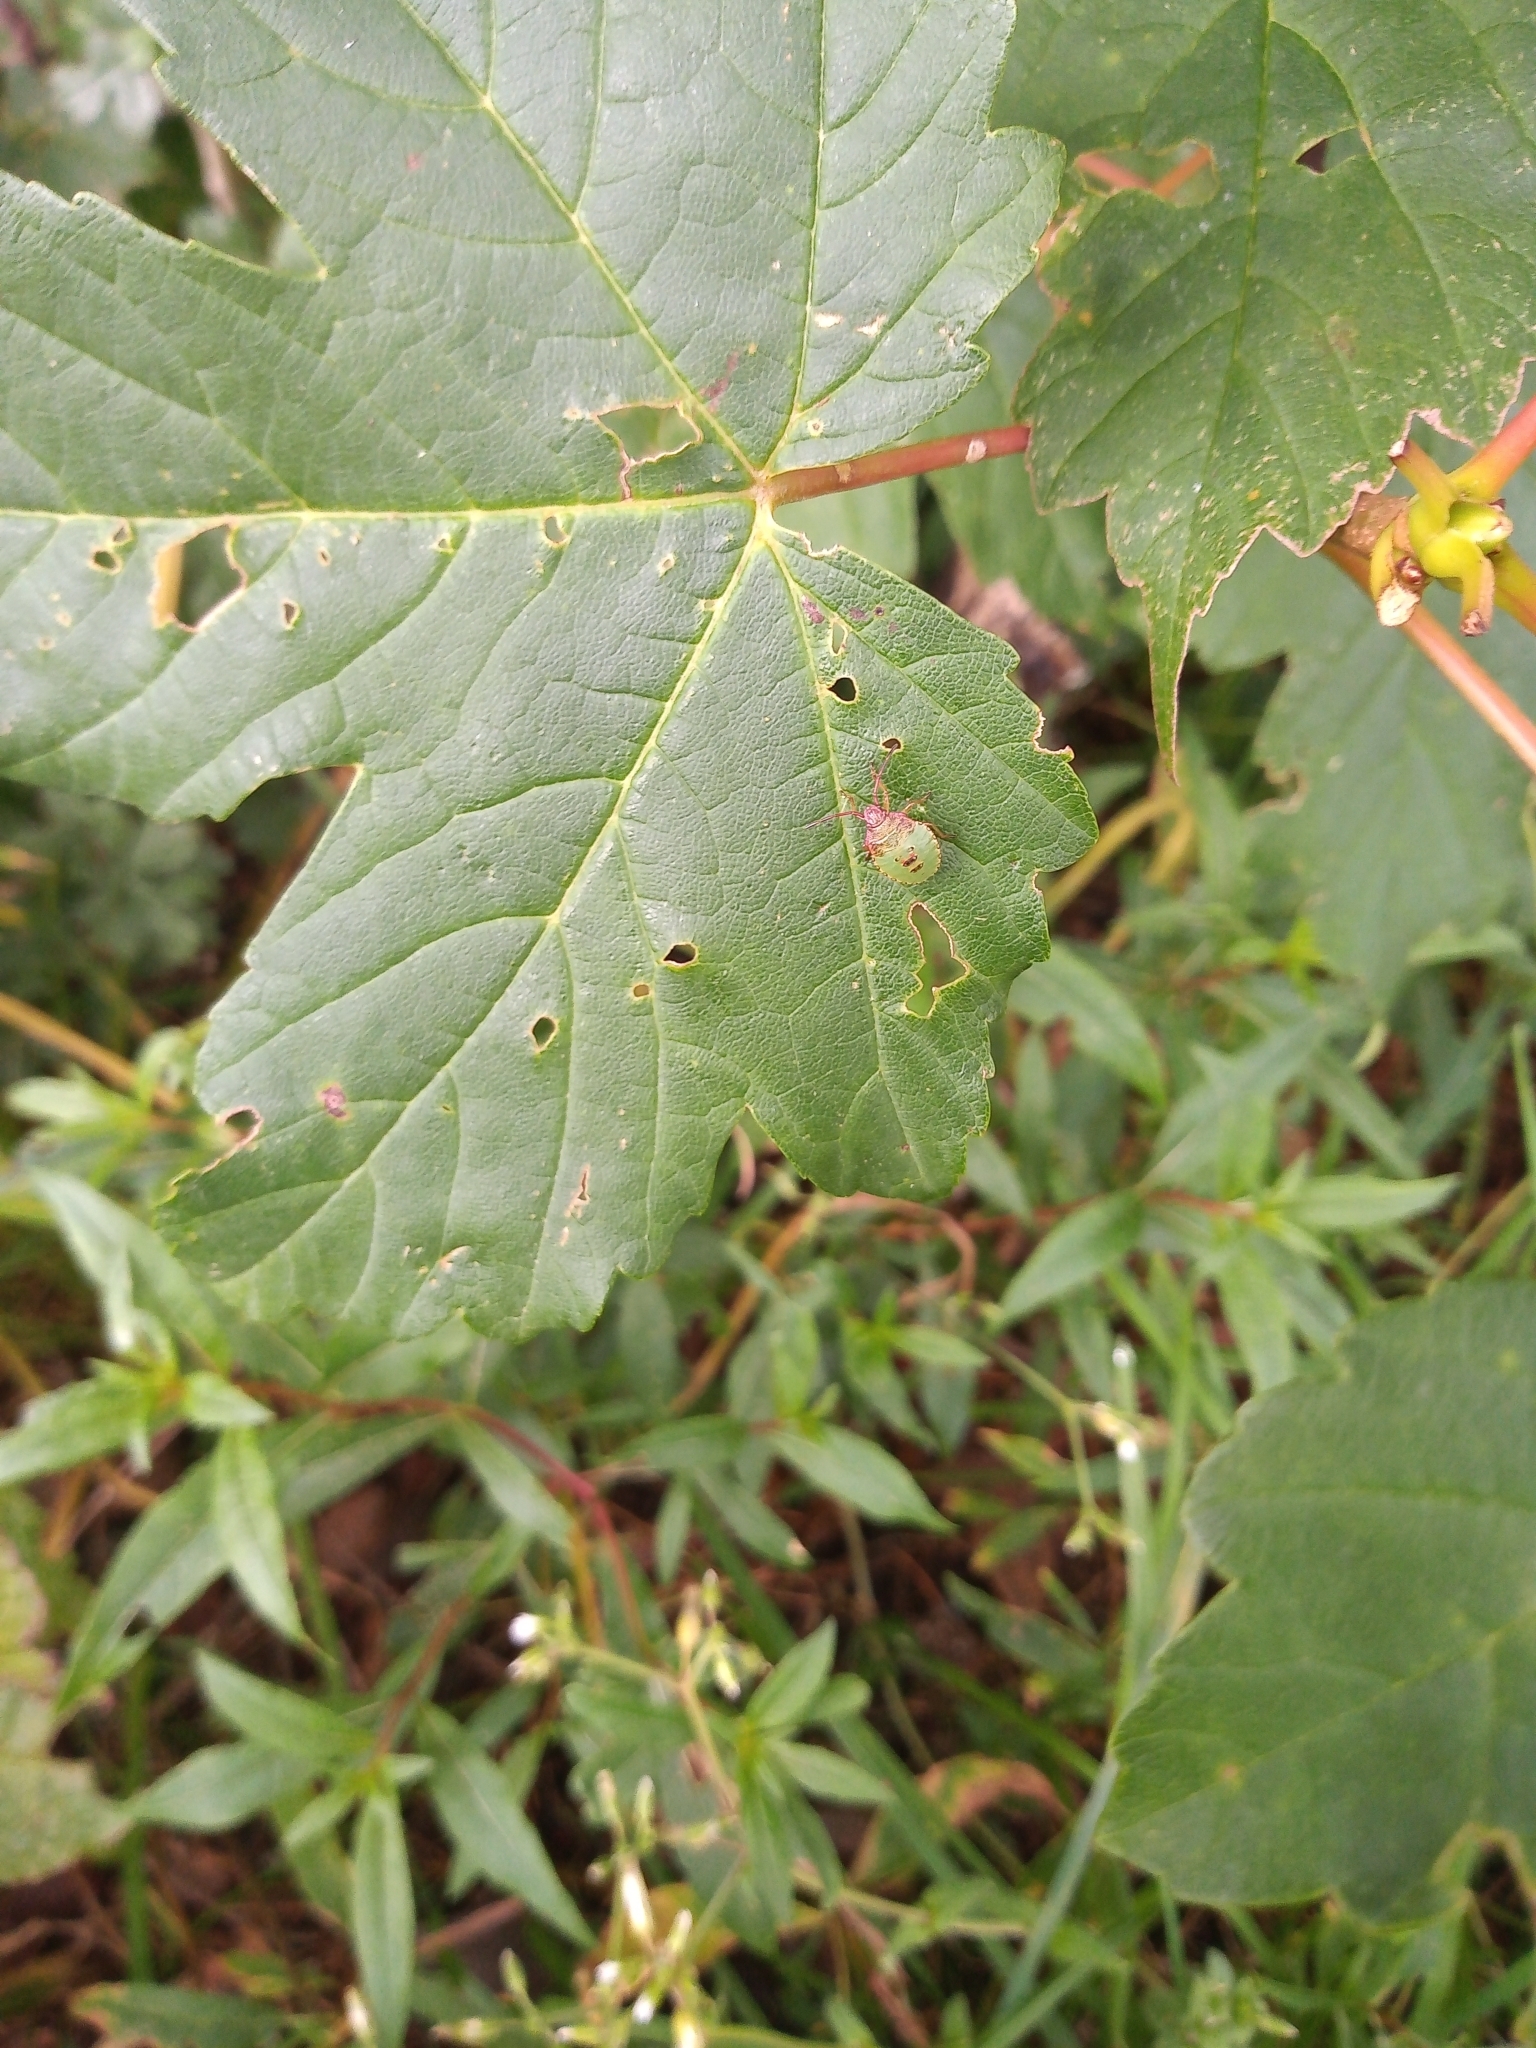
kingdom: Animalia
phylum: Arthropoda
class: Insecta
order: Hemiptera
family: Acanthosomatidae
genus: Acanthosoma
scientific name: Acanthosoma haemorrhoidale
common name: Hawthorn shieldbug
